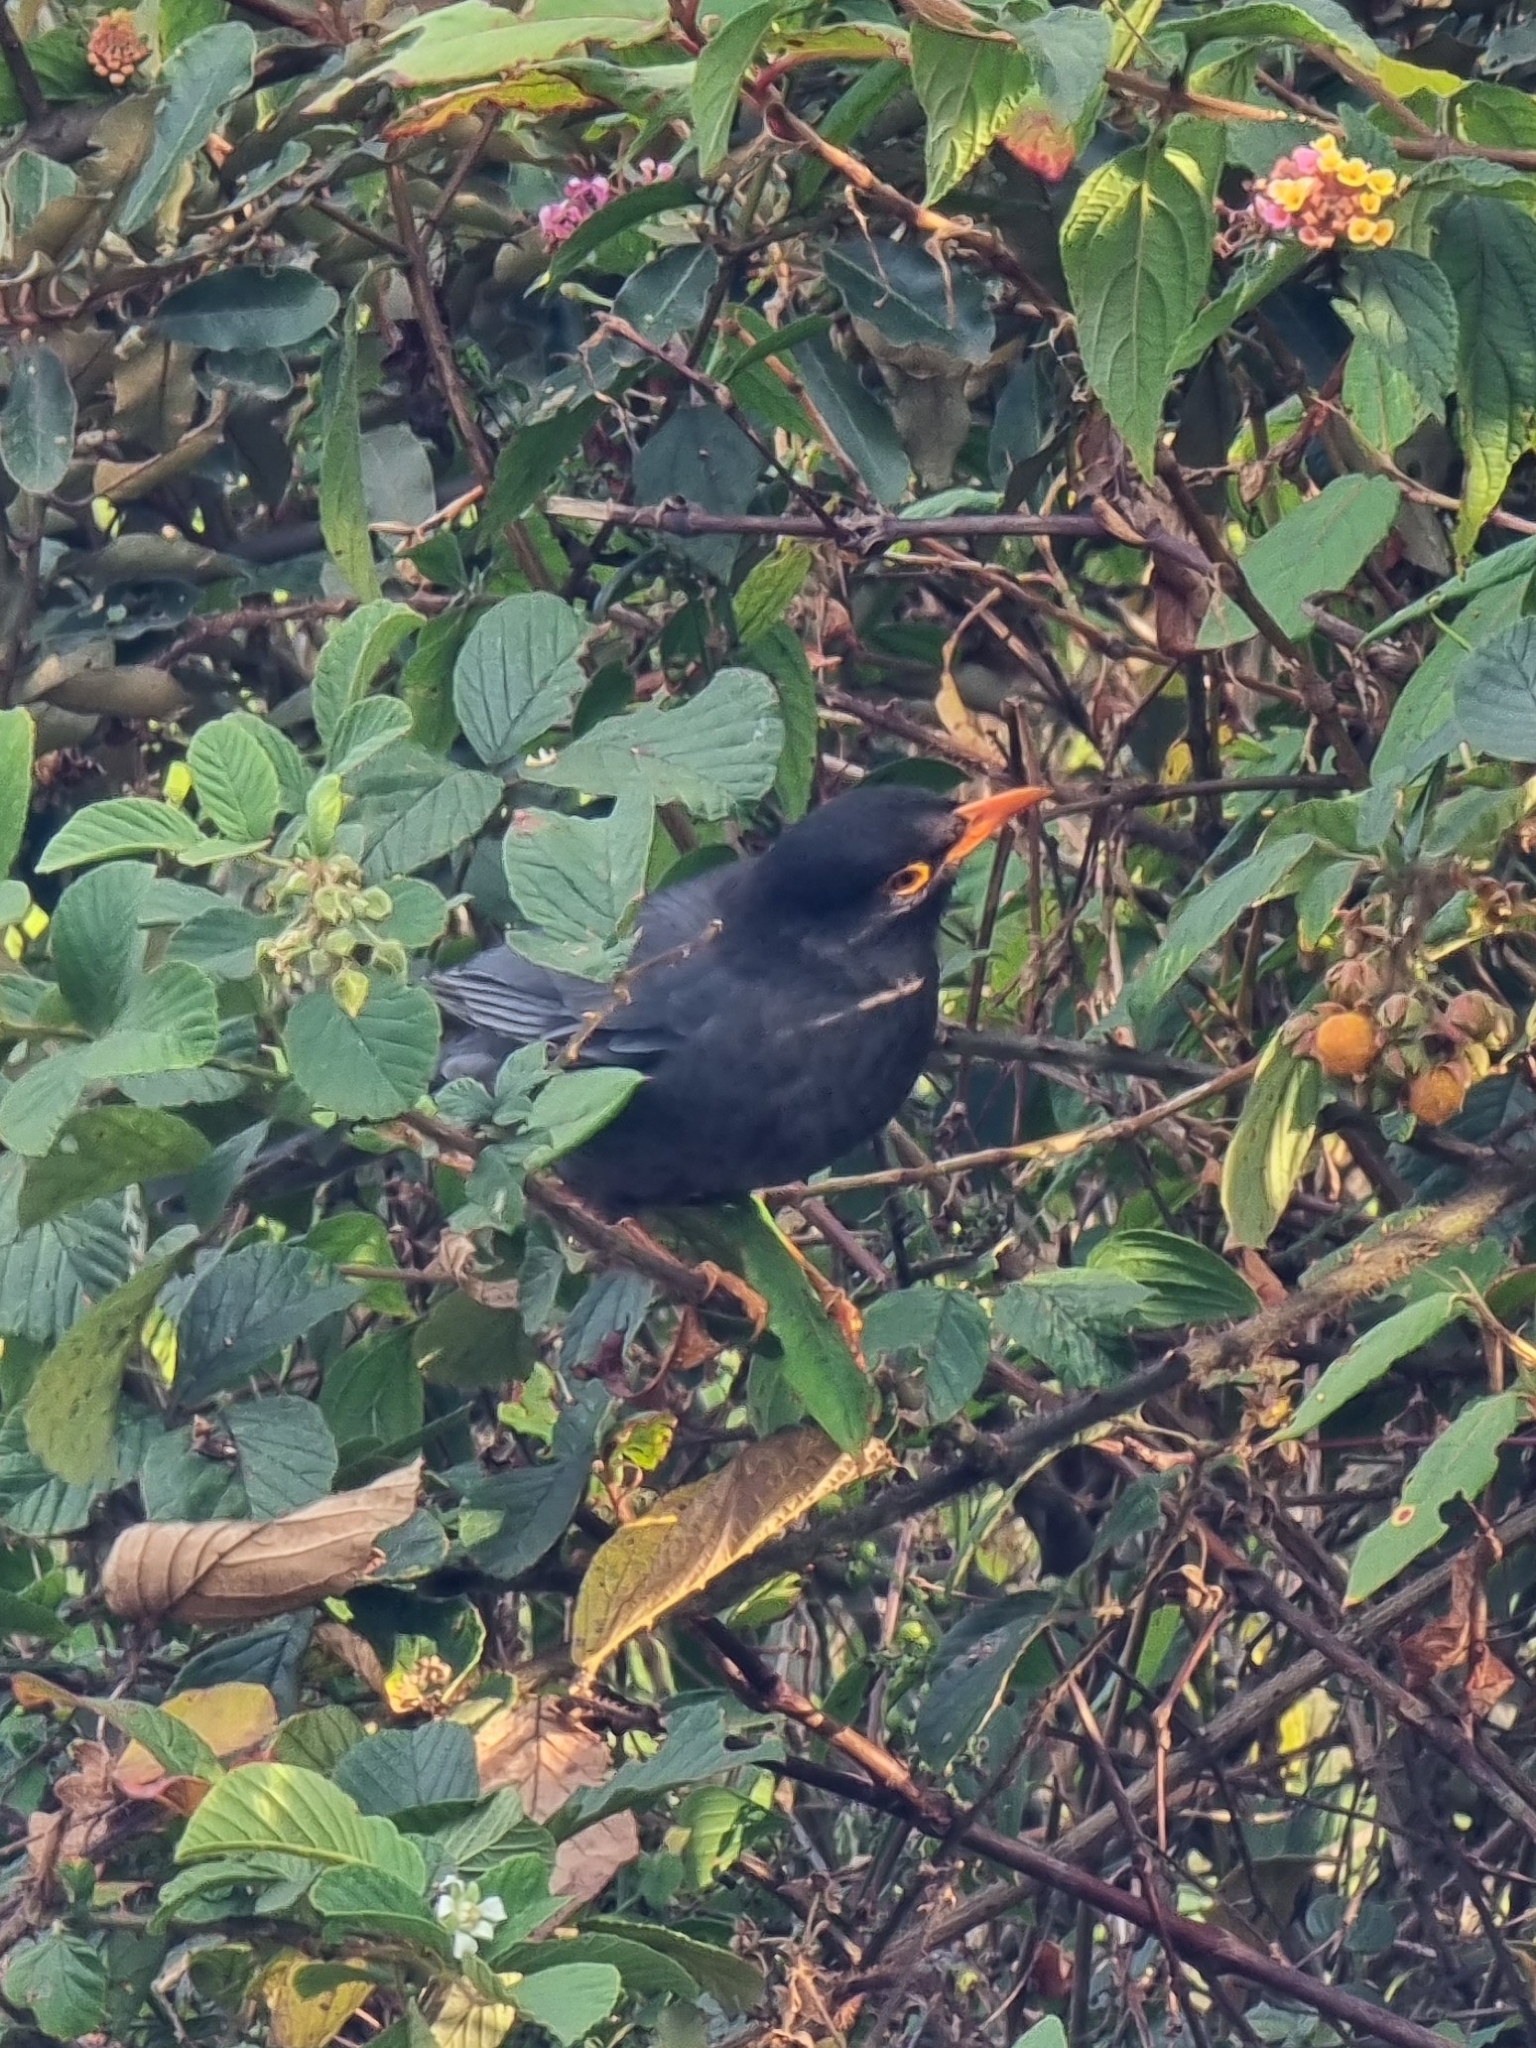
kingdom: Animalia
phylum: Chordata
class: Aves
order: Passeriformes
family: Turdidae
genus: Turdus
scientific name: Turdus simillimus
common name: Indian blackbird
